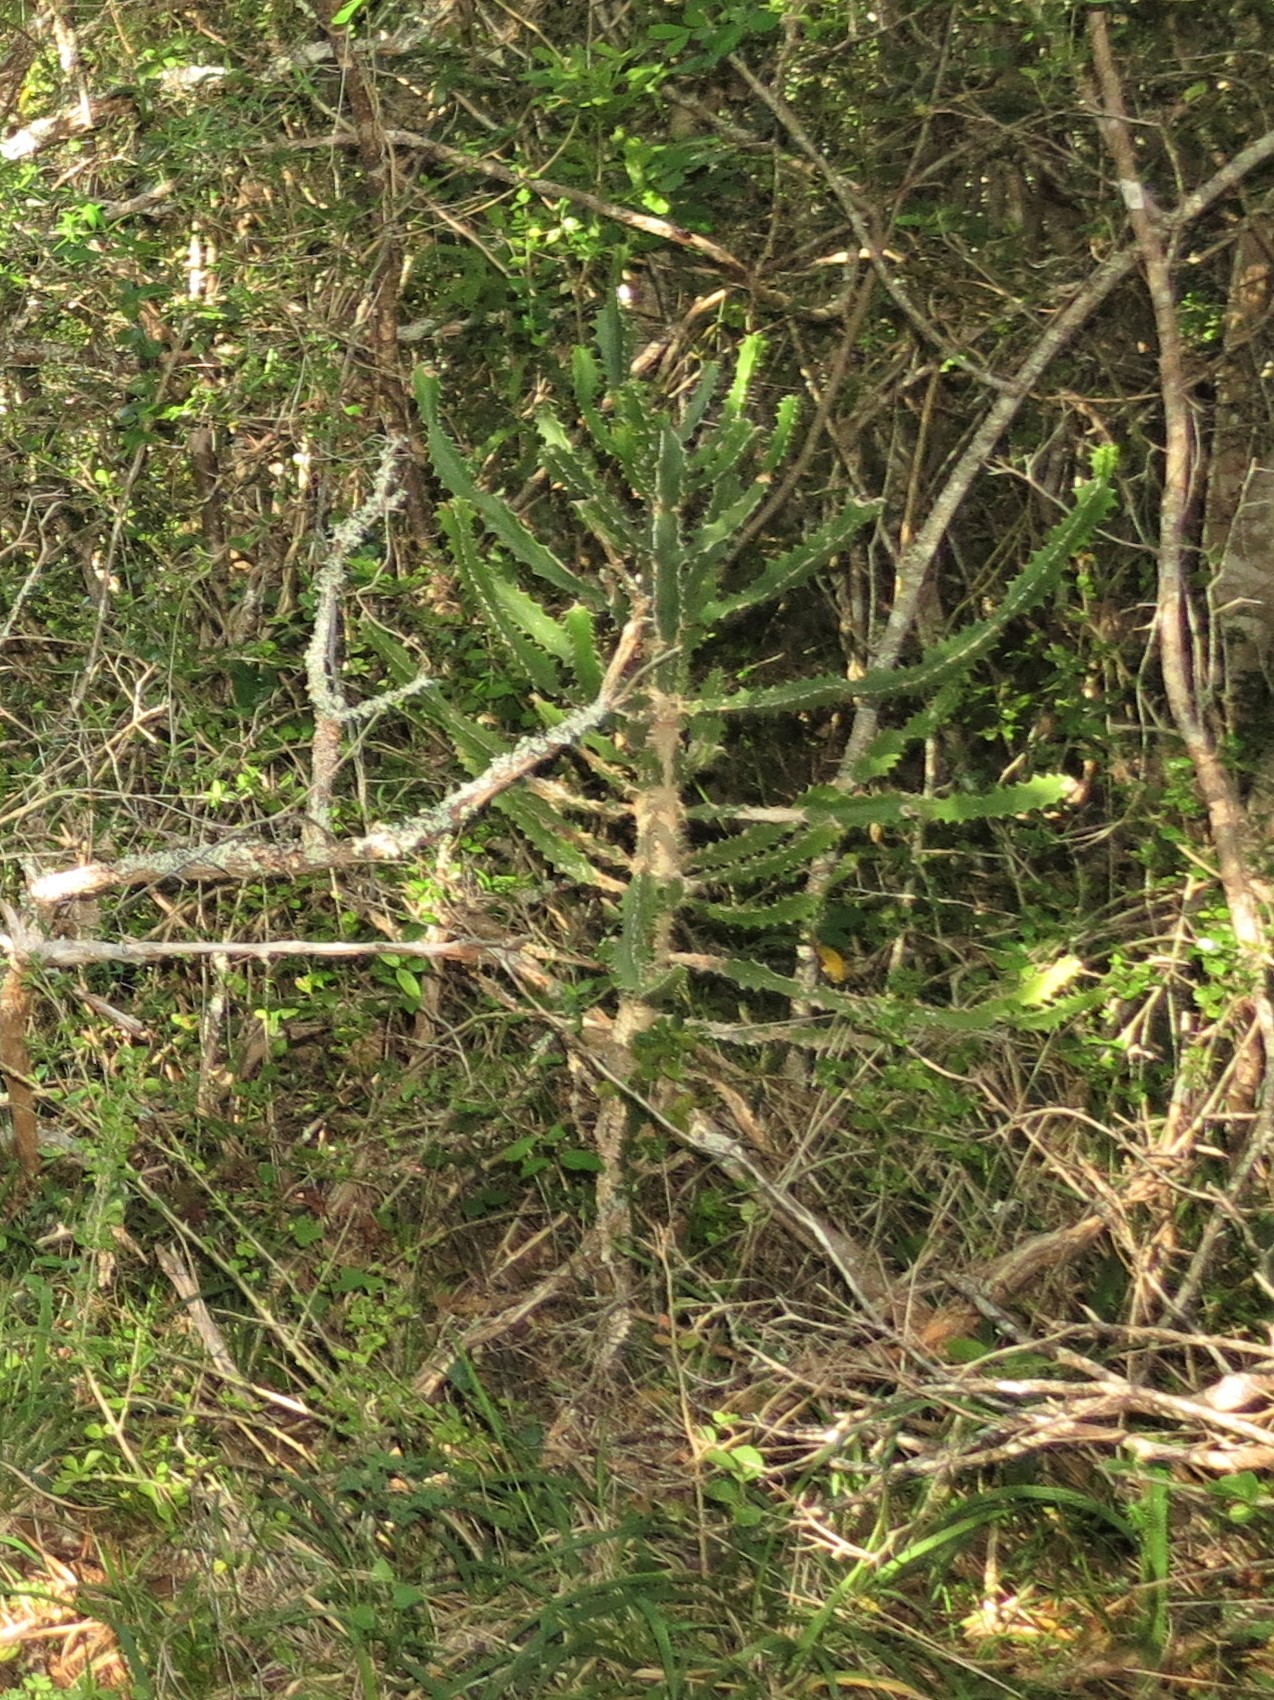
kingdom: Plantae
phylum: Tracheophyta
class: Magnoliopsida
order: Malpighiales
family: Euphorbiaceae
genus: Euphorbia
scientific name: Euphorbia grandidens
